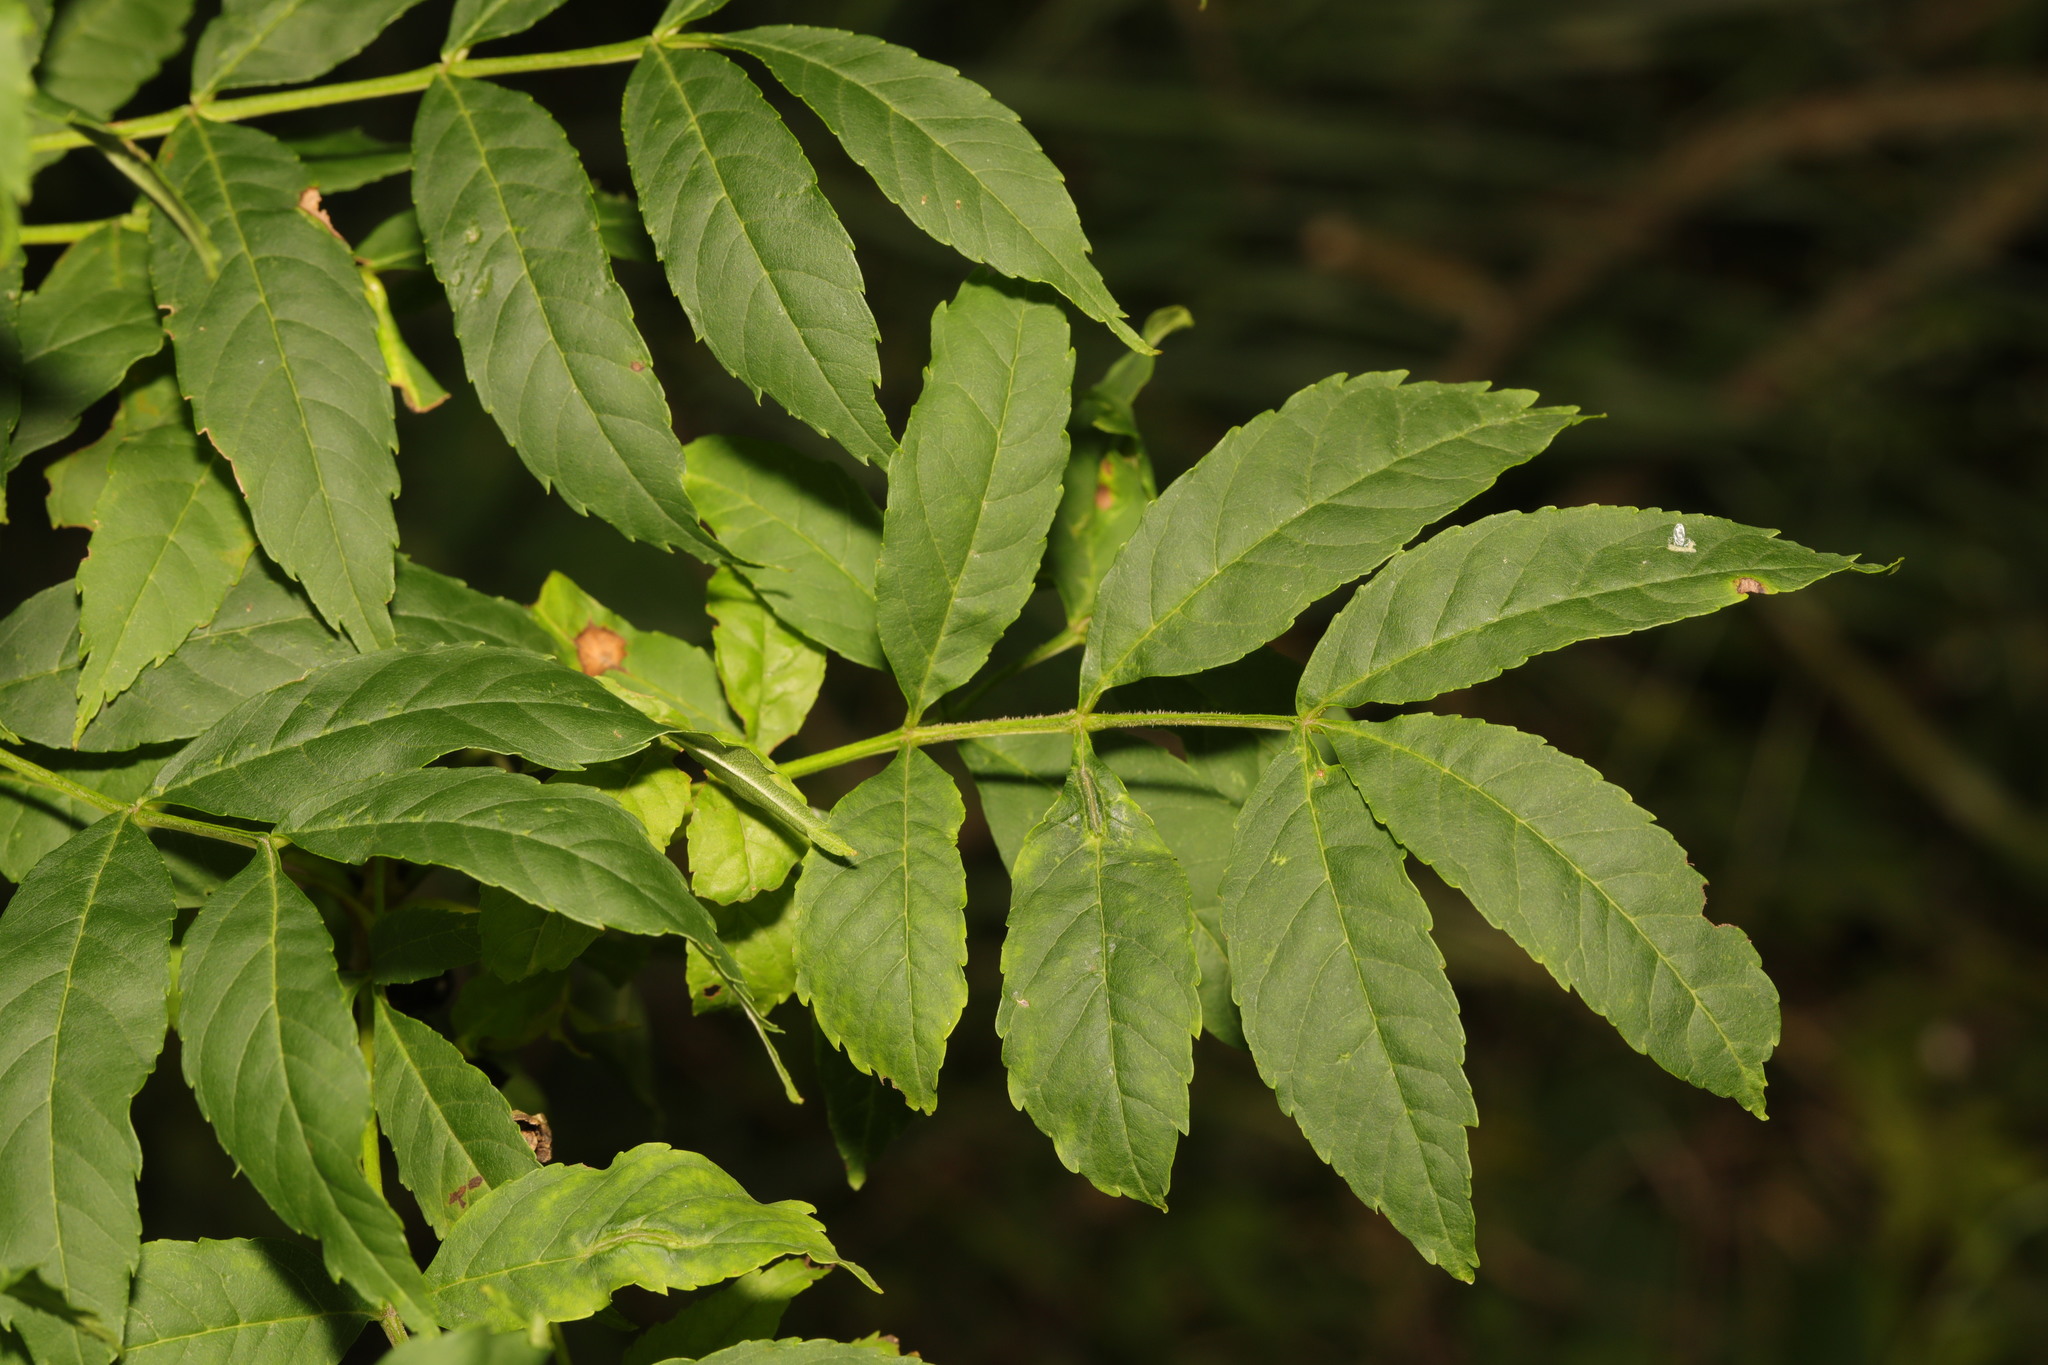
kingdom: Plantae
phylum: Tracheophyta
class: Magnoliopsida
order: Lamiales
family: Oleaceae
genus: Fraxinus
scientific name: Fraxinus excelsior
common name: European ash
